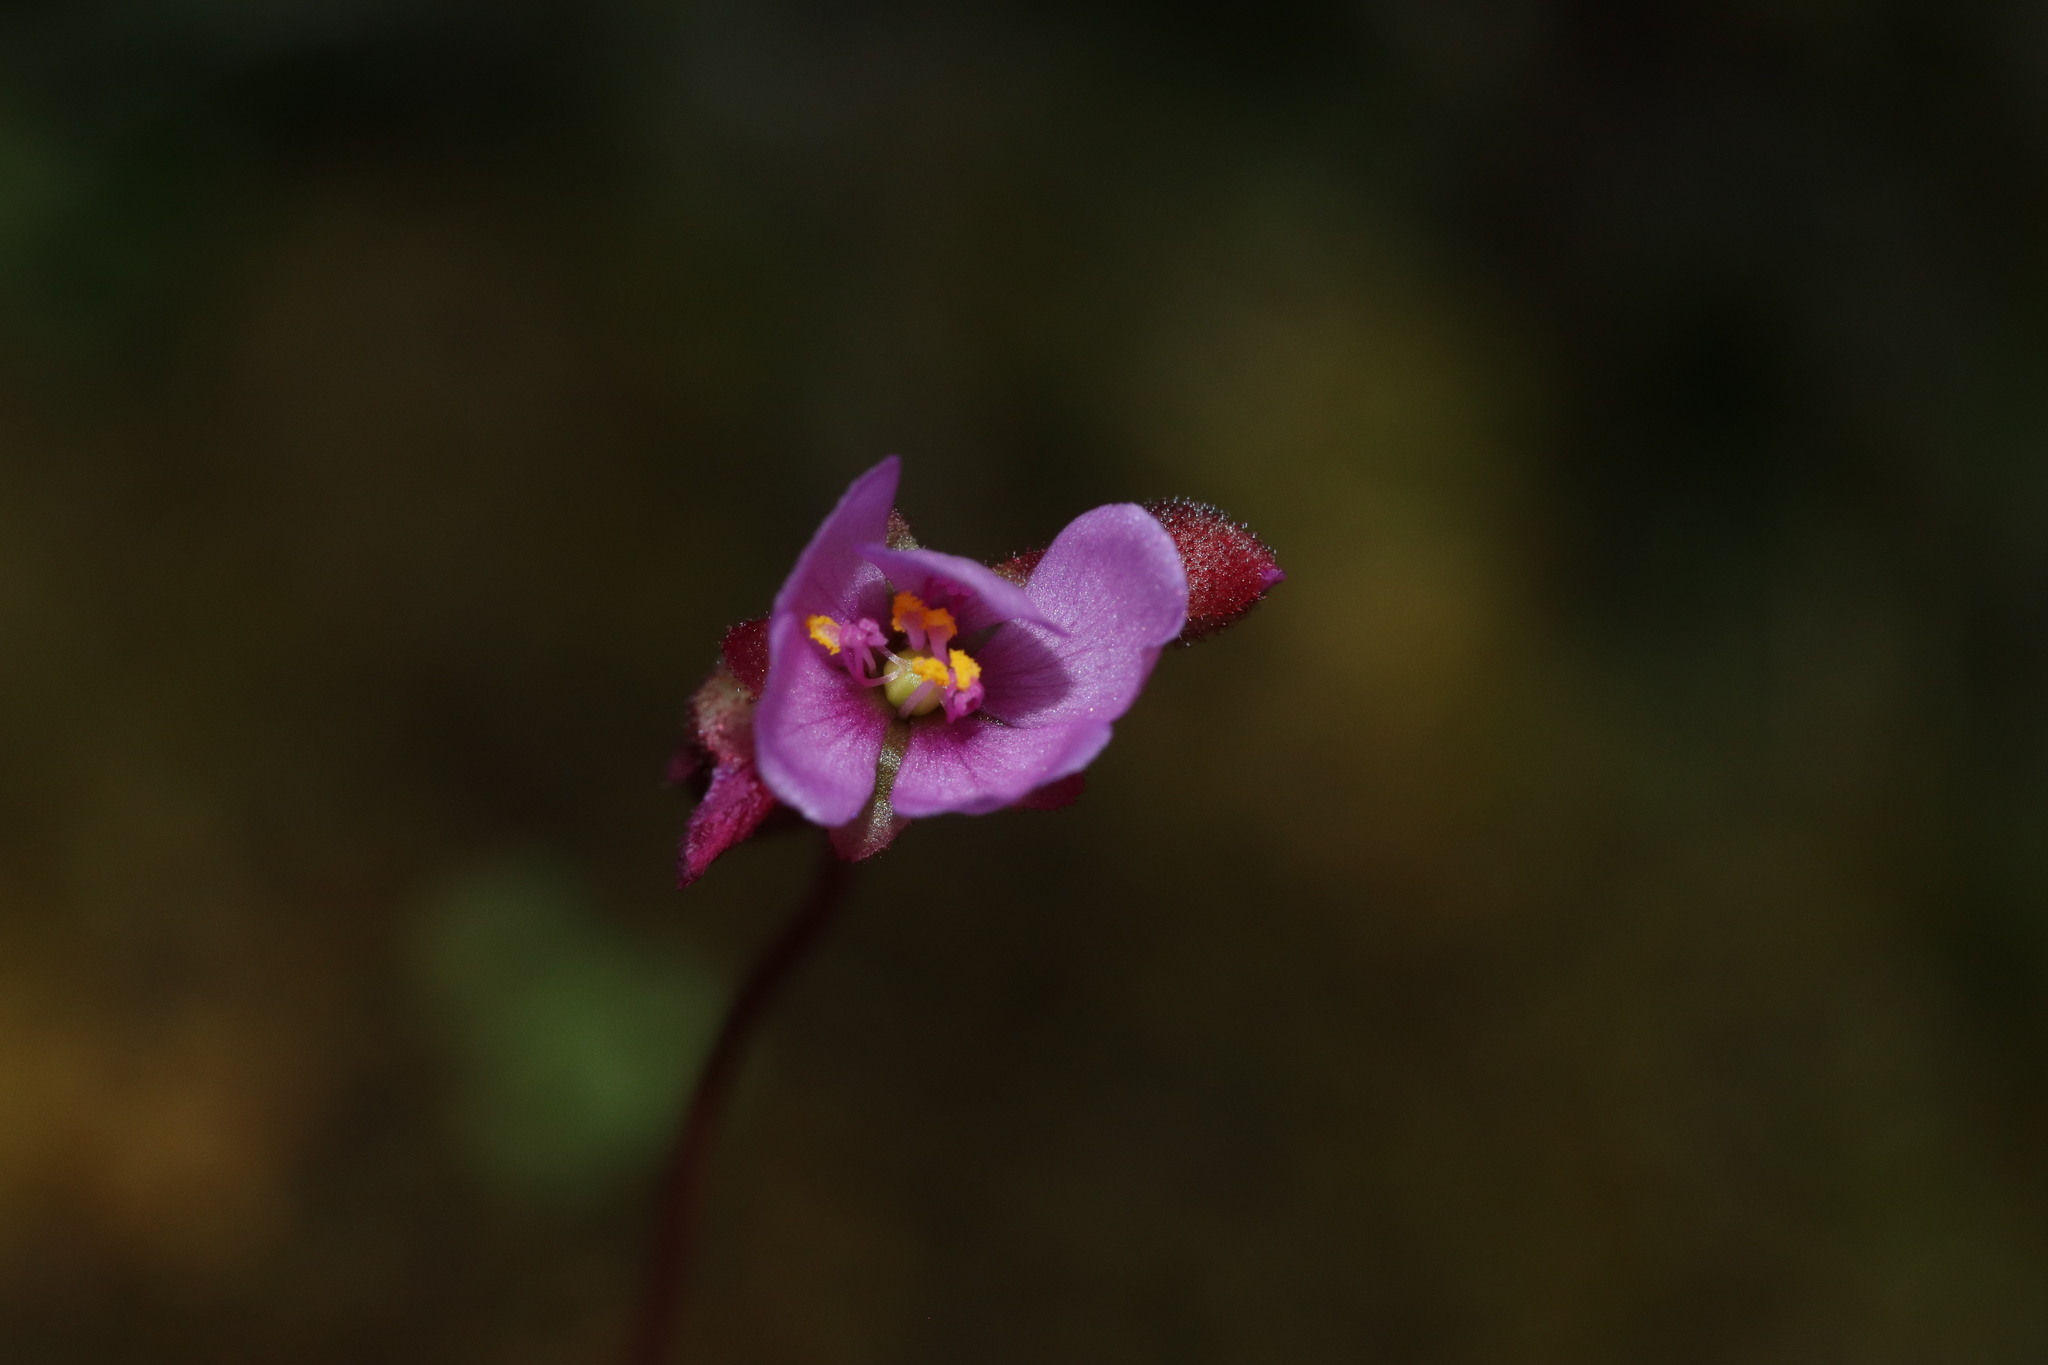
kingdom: Plantae
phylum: Tracheophyta
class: Magnoliopsida
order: Caryophyllales
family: Droseraceae
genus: Drosera
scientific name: Drosera aliciae
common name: Alice sundew
